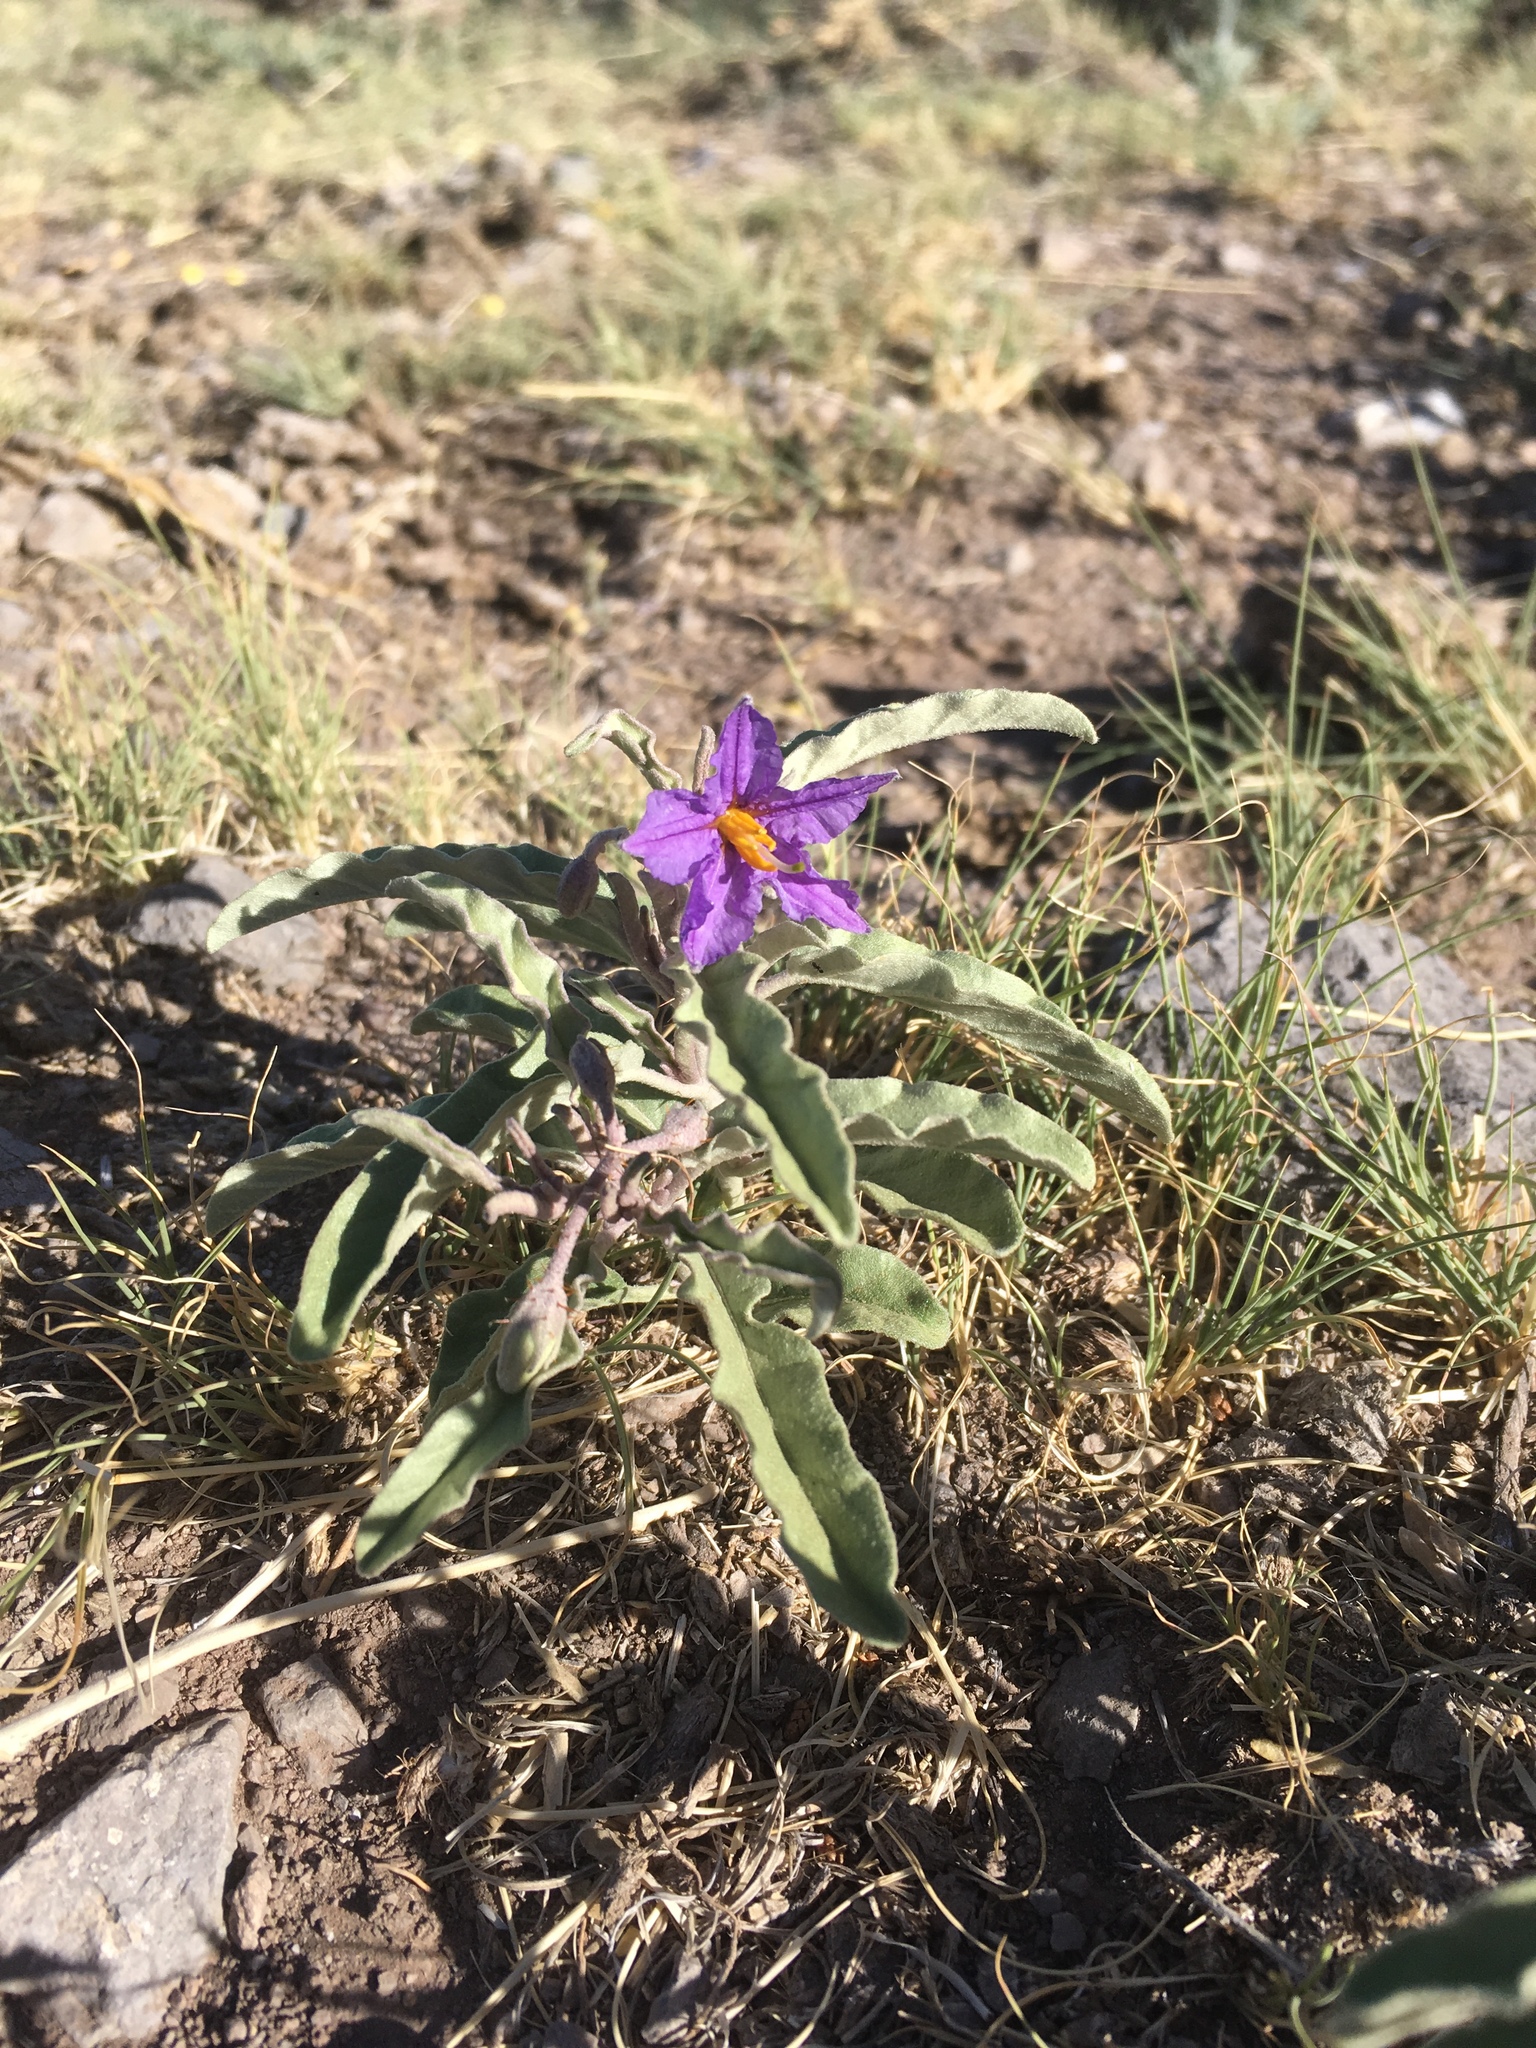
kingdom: Plantae
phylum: Tracheophyta
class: Magnoliopsida
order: Solanales
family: Solanaceae
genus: Solanum
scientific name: Solanum elaeagnifolium
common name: Silverleaf nightshade
